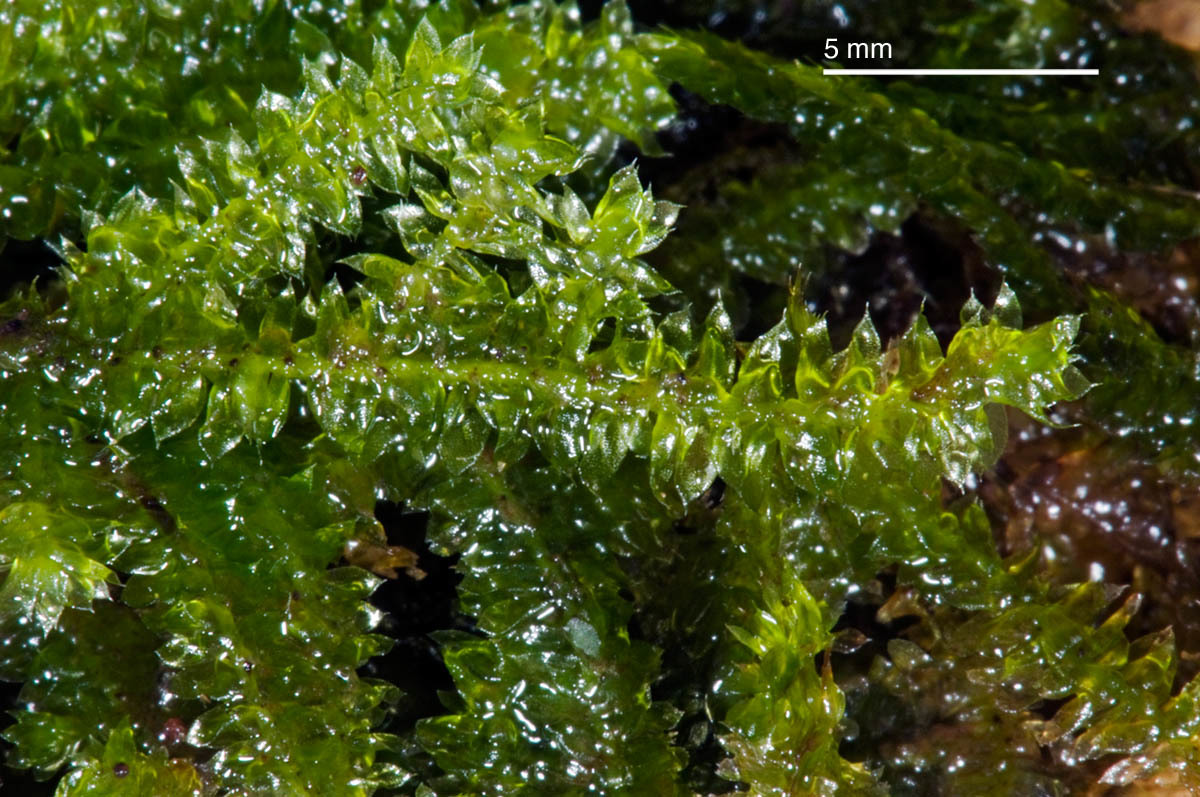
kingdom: Plantae
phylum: Bryophyta
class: Bryopsida
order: Hookeriales
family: Pilotrichaceae
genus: Cyclodictyon
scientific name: Cyclodictyon blumeanum
